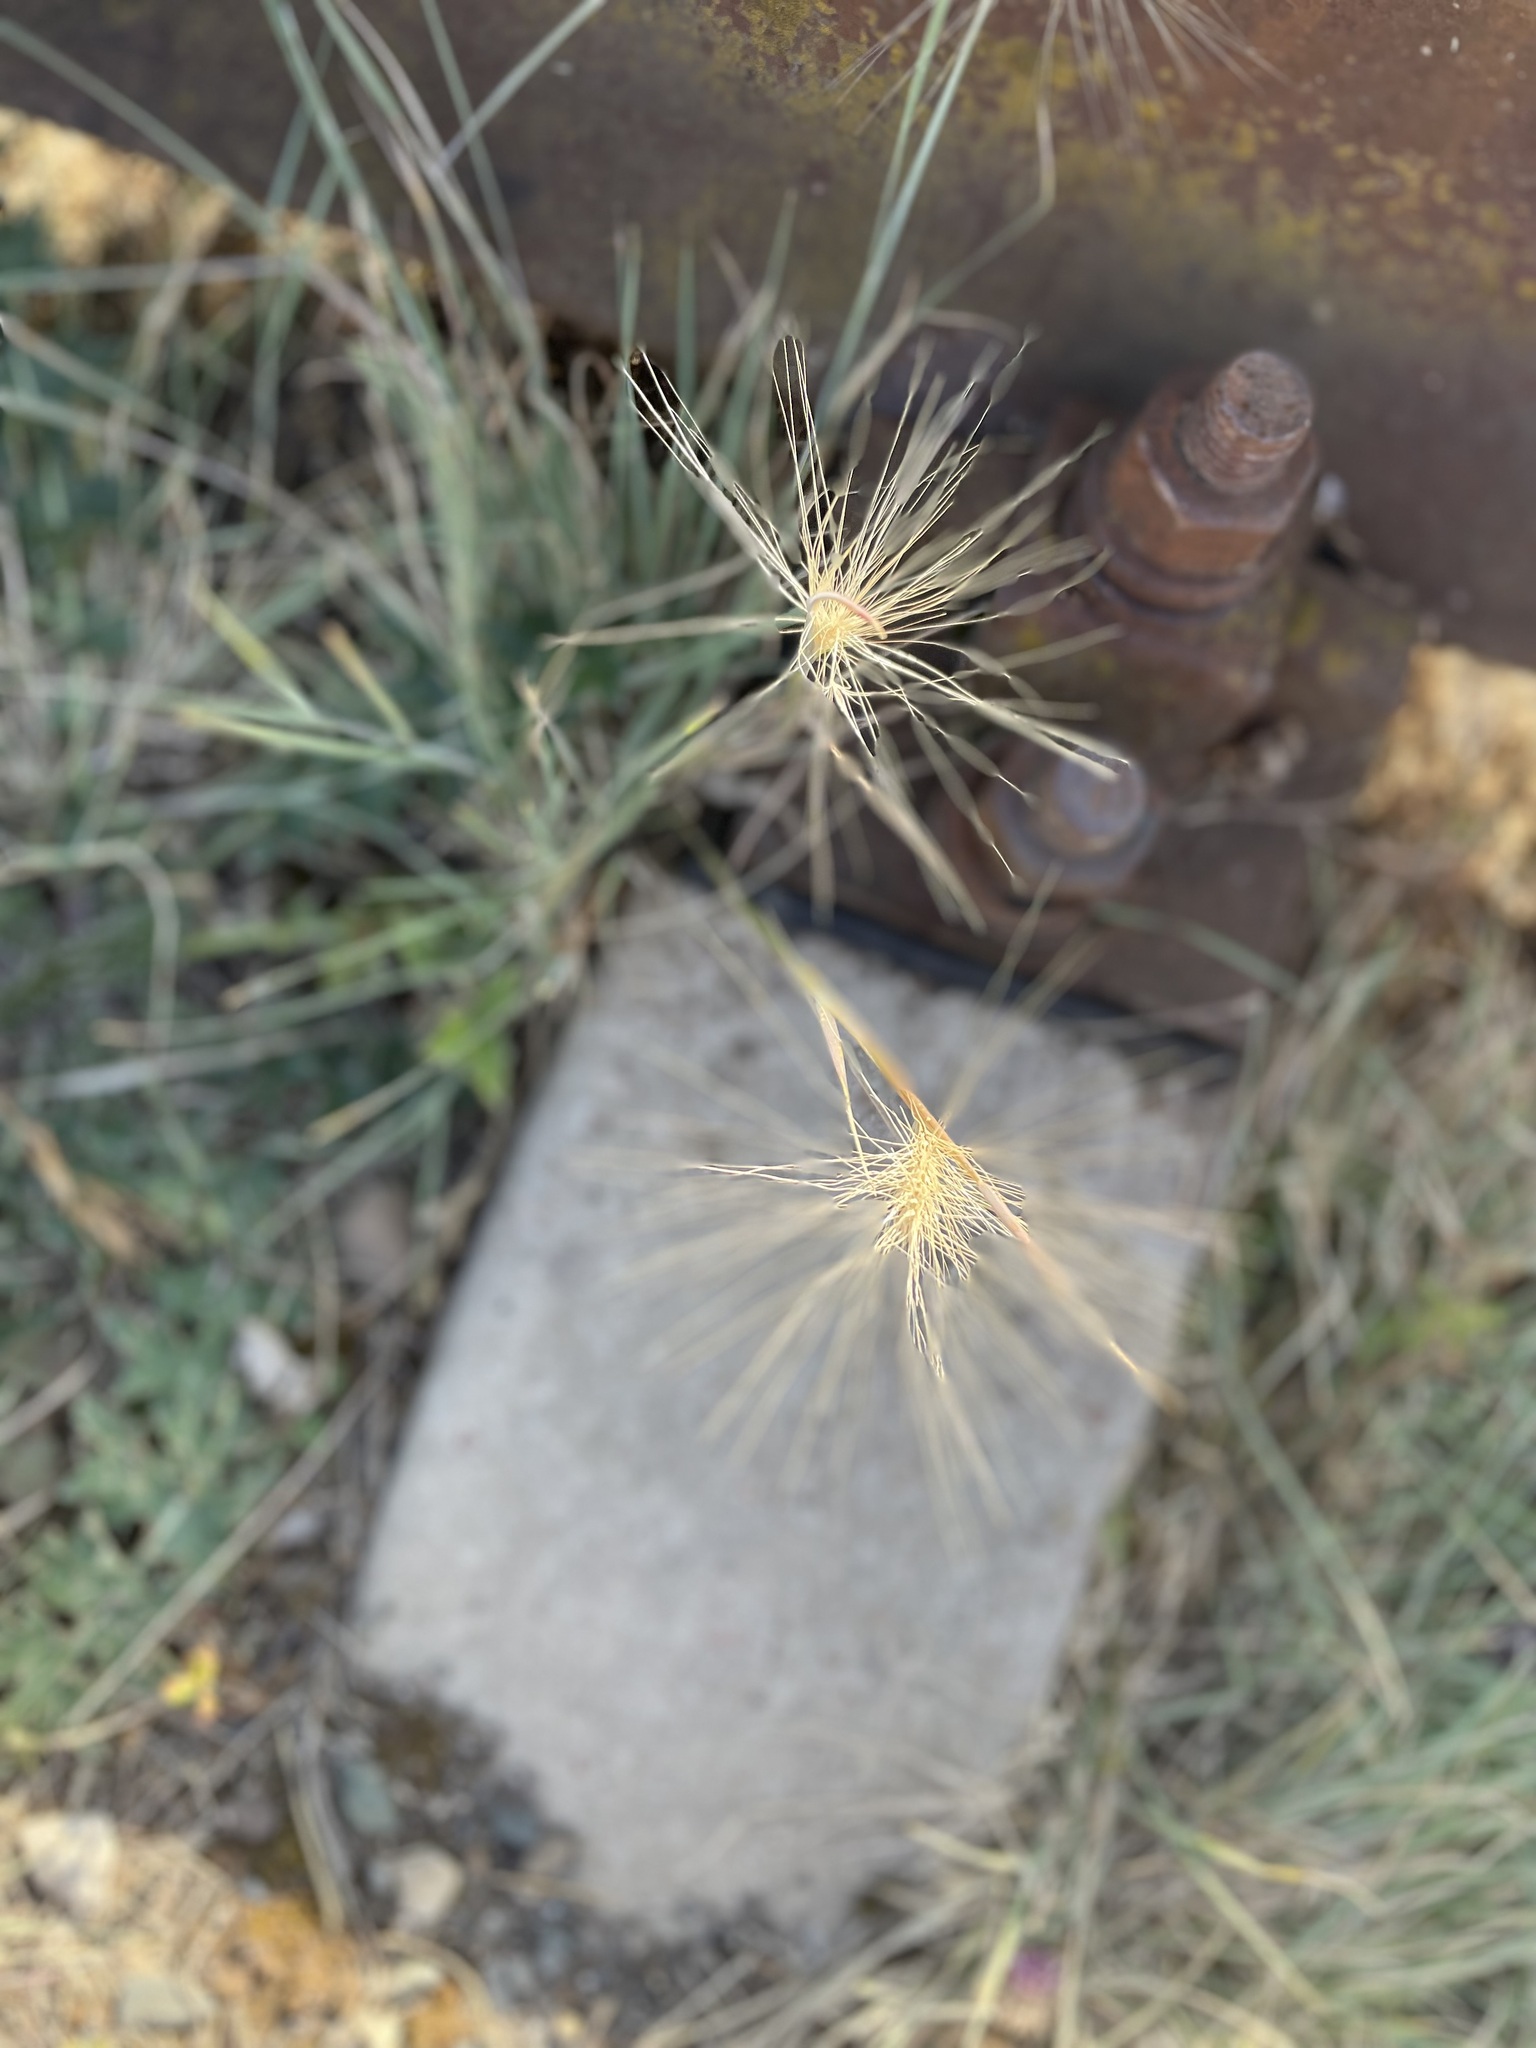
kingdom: Plantae
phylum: Tracheophyta
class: Liliopsida
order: Poales
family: Poaceae
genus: Hordeum
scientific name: Hordeum jubatum
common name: Foxtail barley
